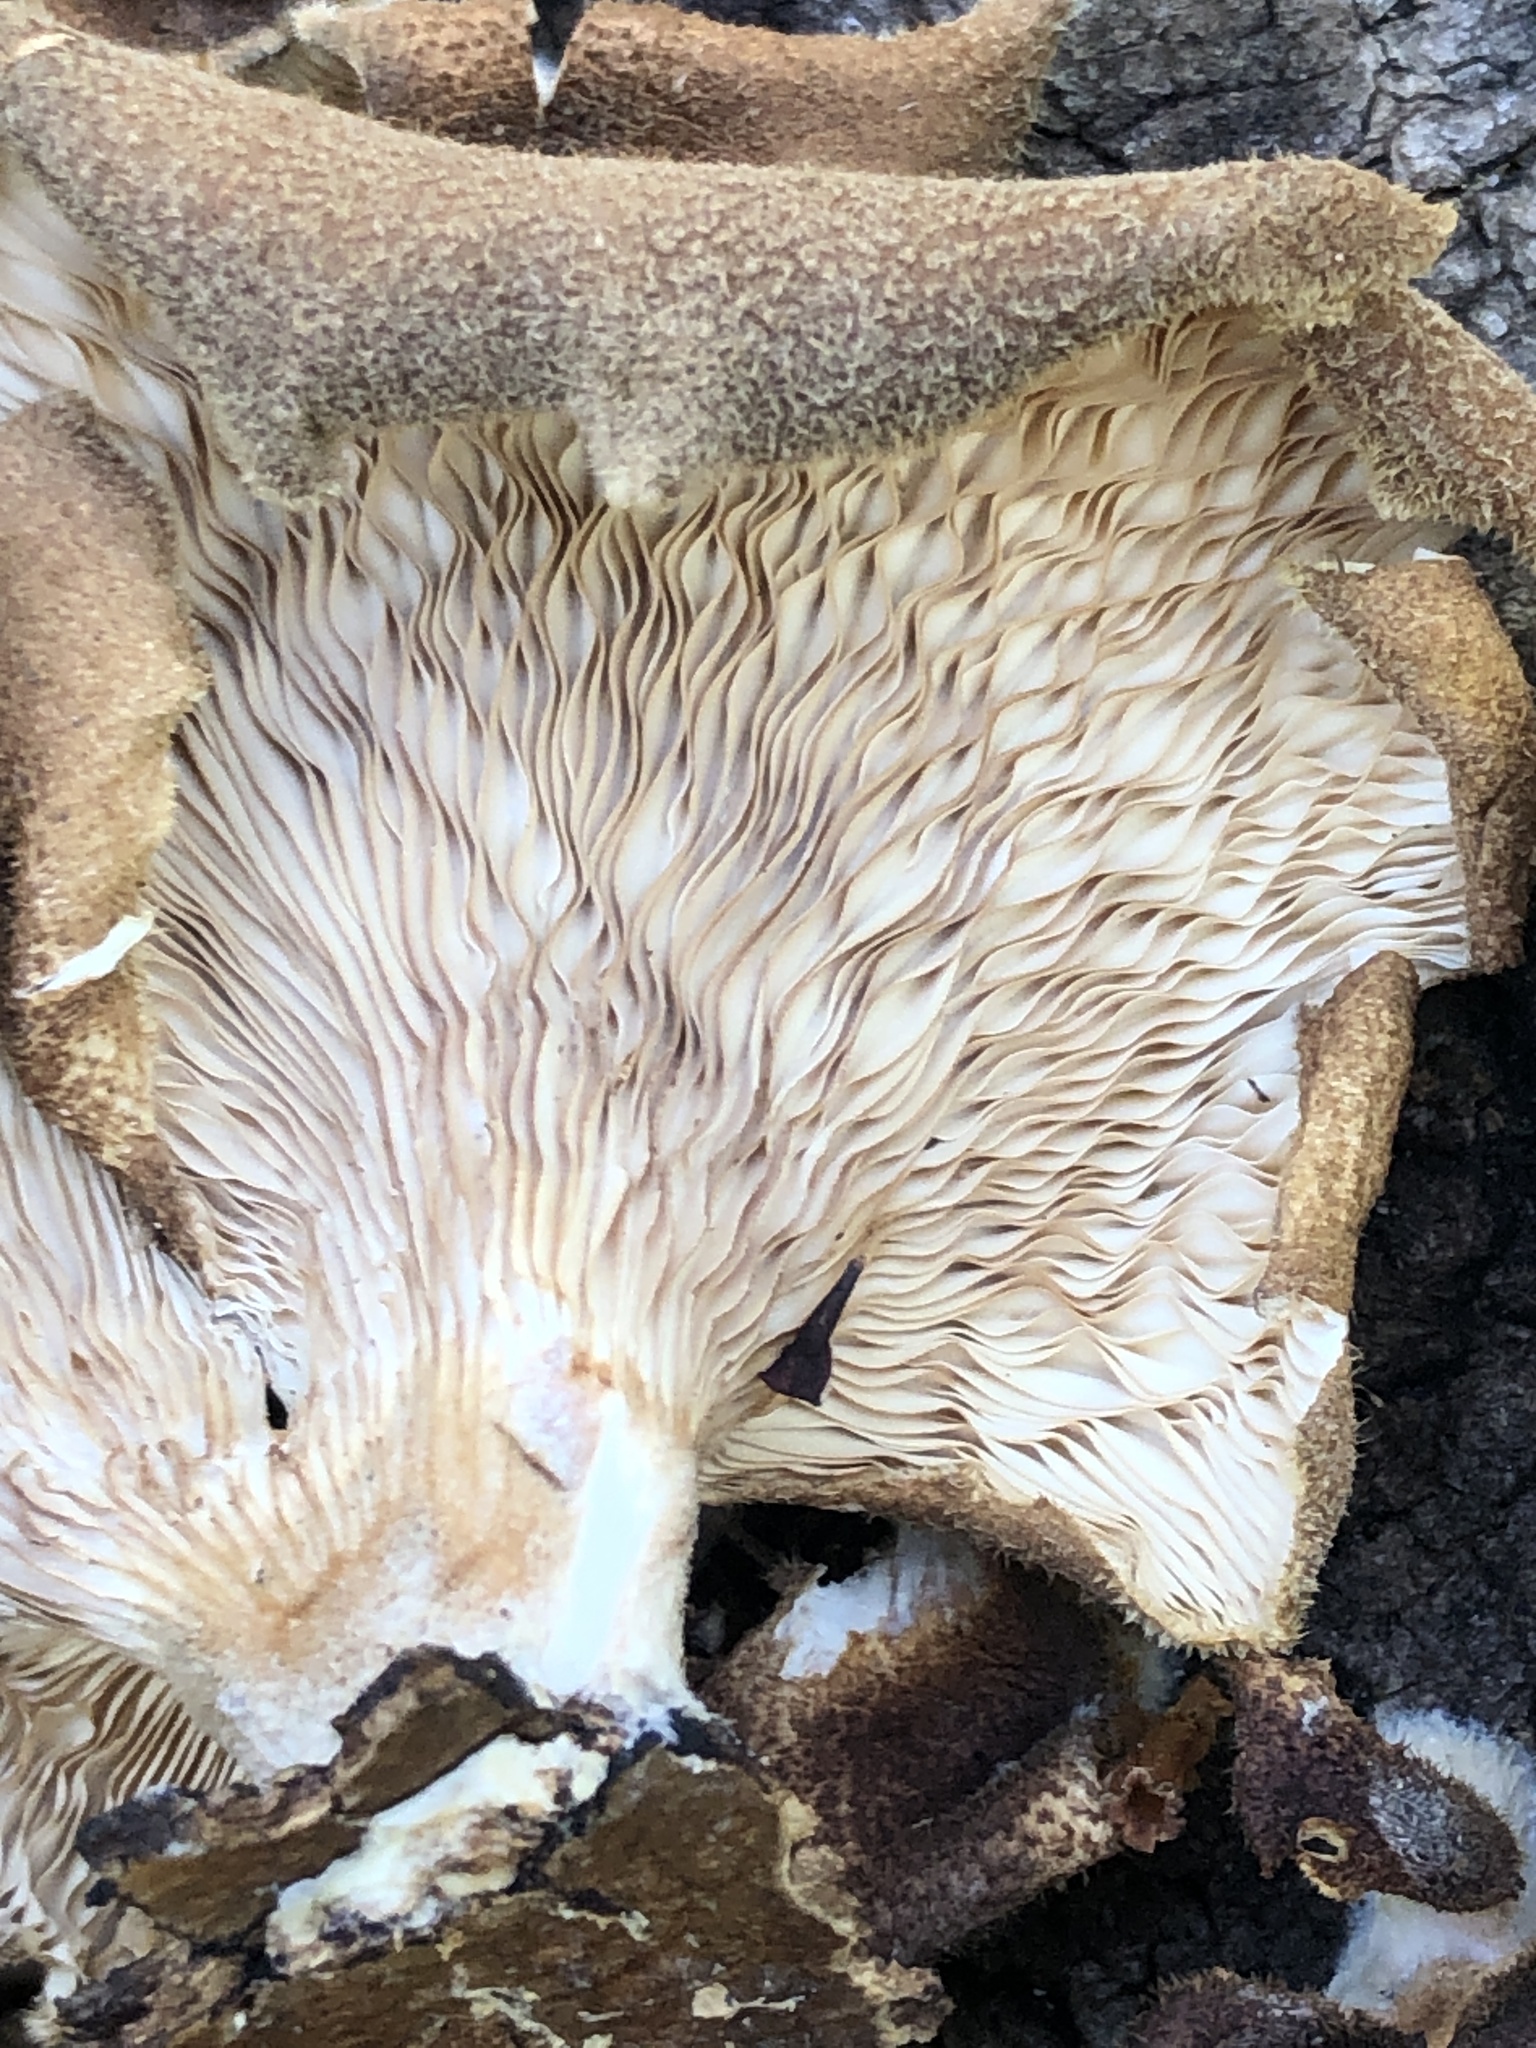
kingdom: Fungi
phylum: Basidiomycota
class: Agaricomycetes
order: Polyporales
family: Panaceae
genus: Panus
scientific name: Panus neostrigosus
